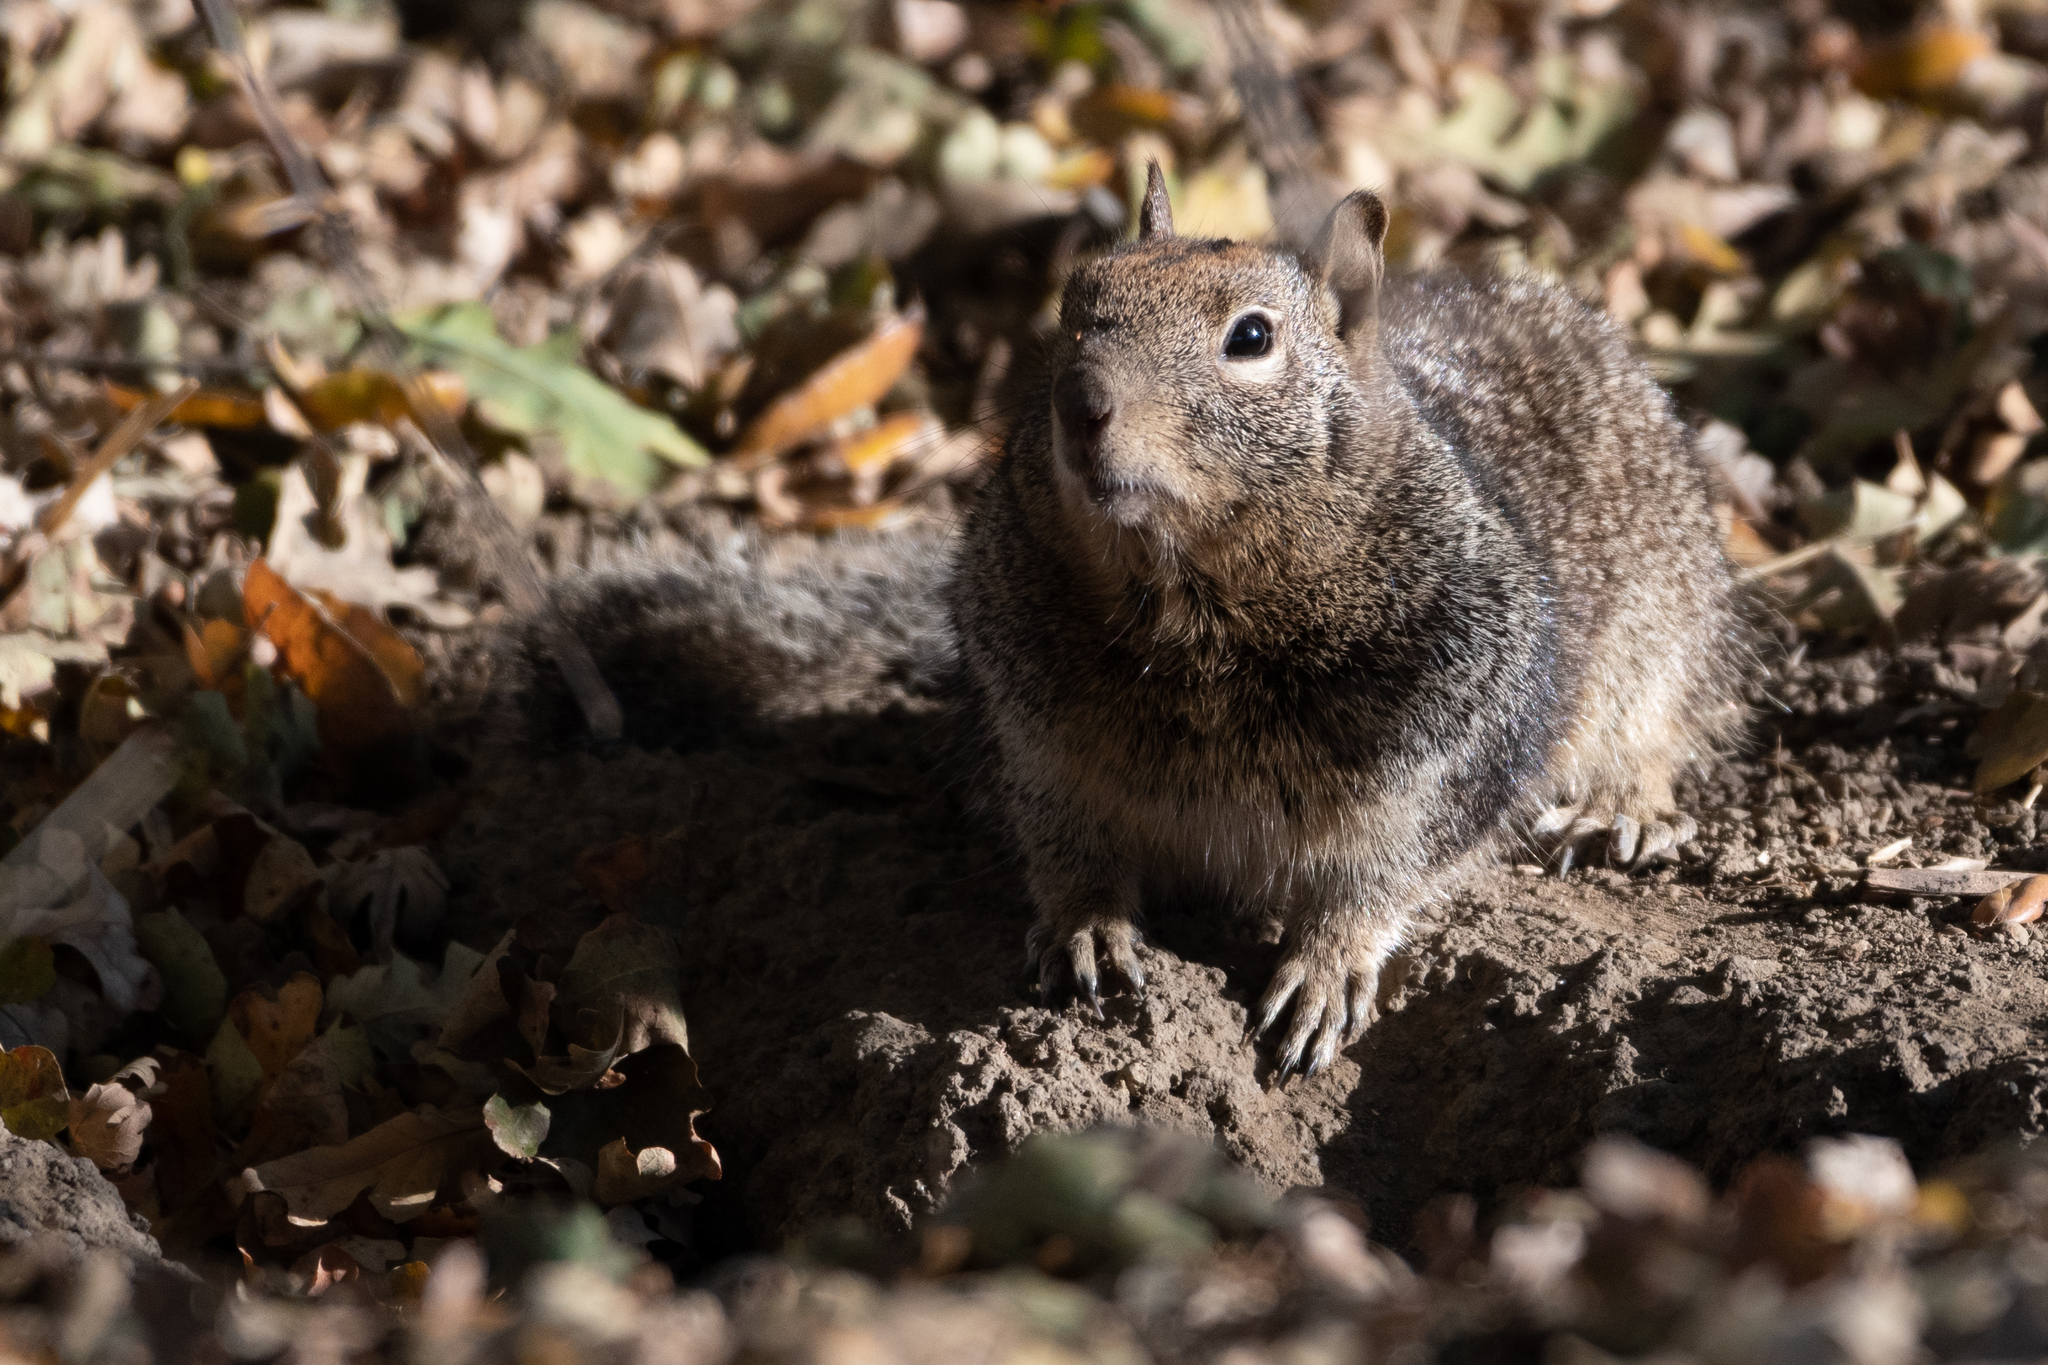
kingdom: Animalia
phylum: Chordata
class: Mammalia
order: Rodentia
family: Sciuridae
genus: Otospermophilus
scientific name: Otospermophilus beecheyi
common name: California ground squirrel
